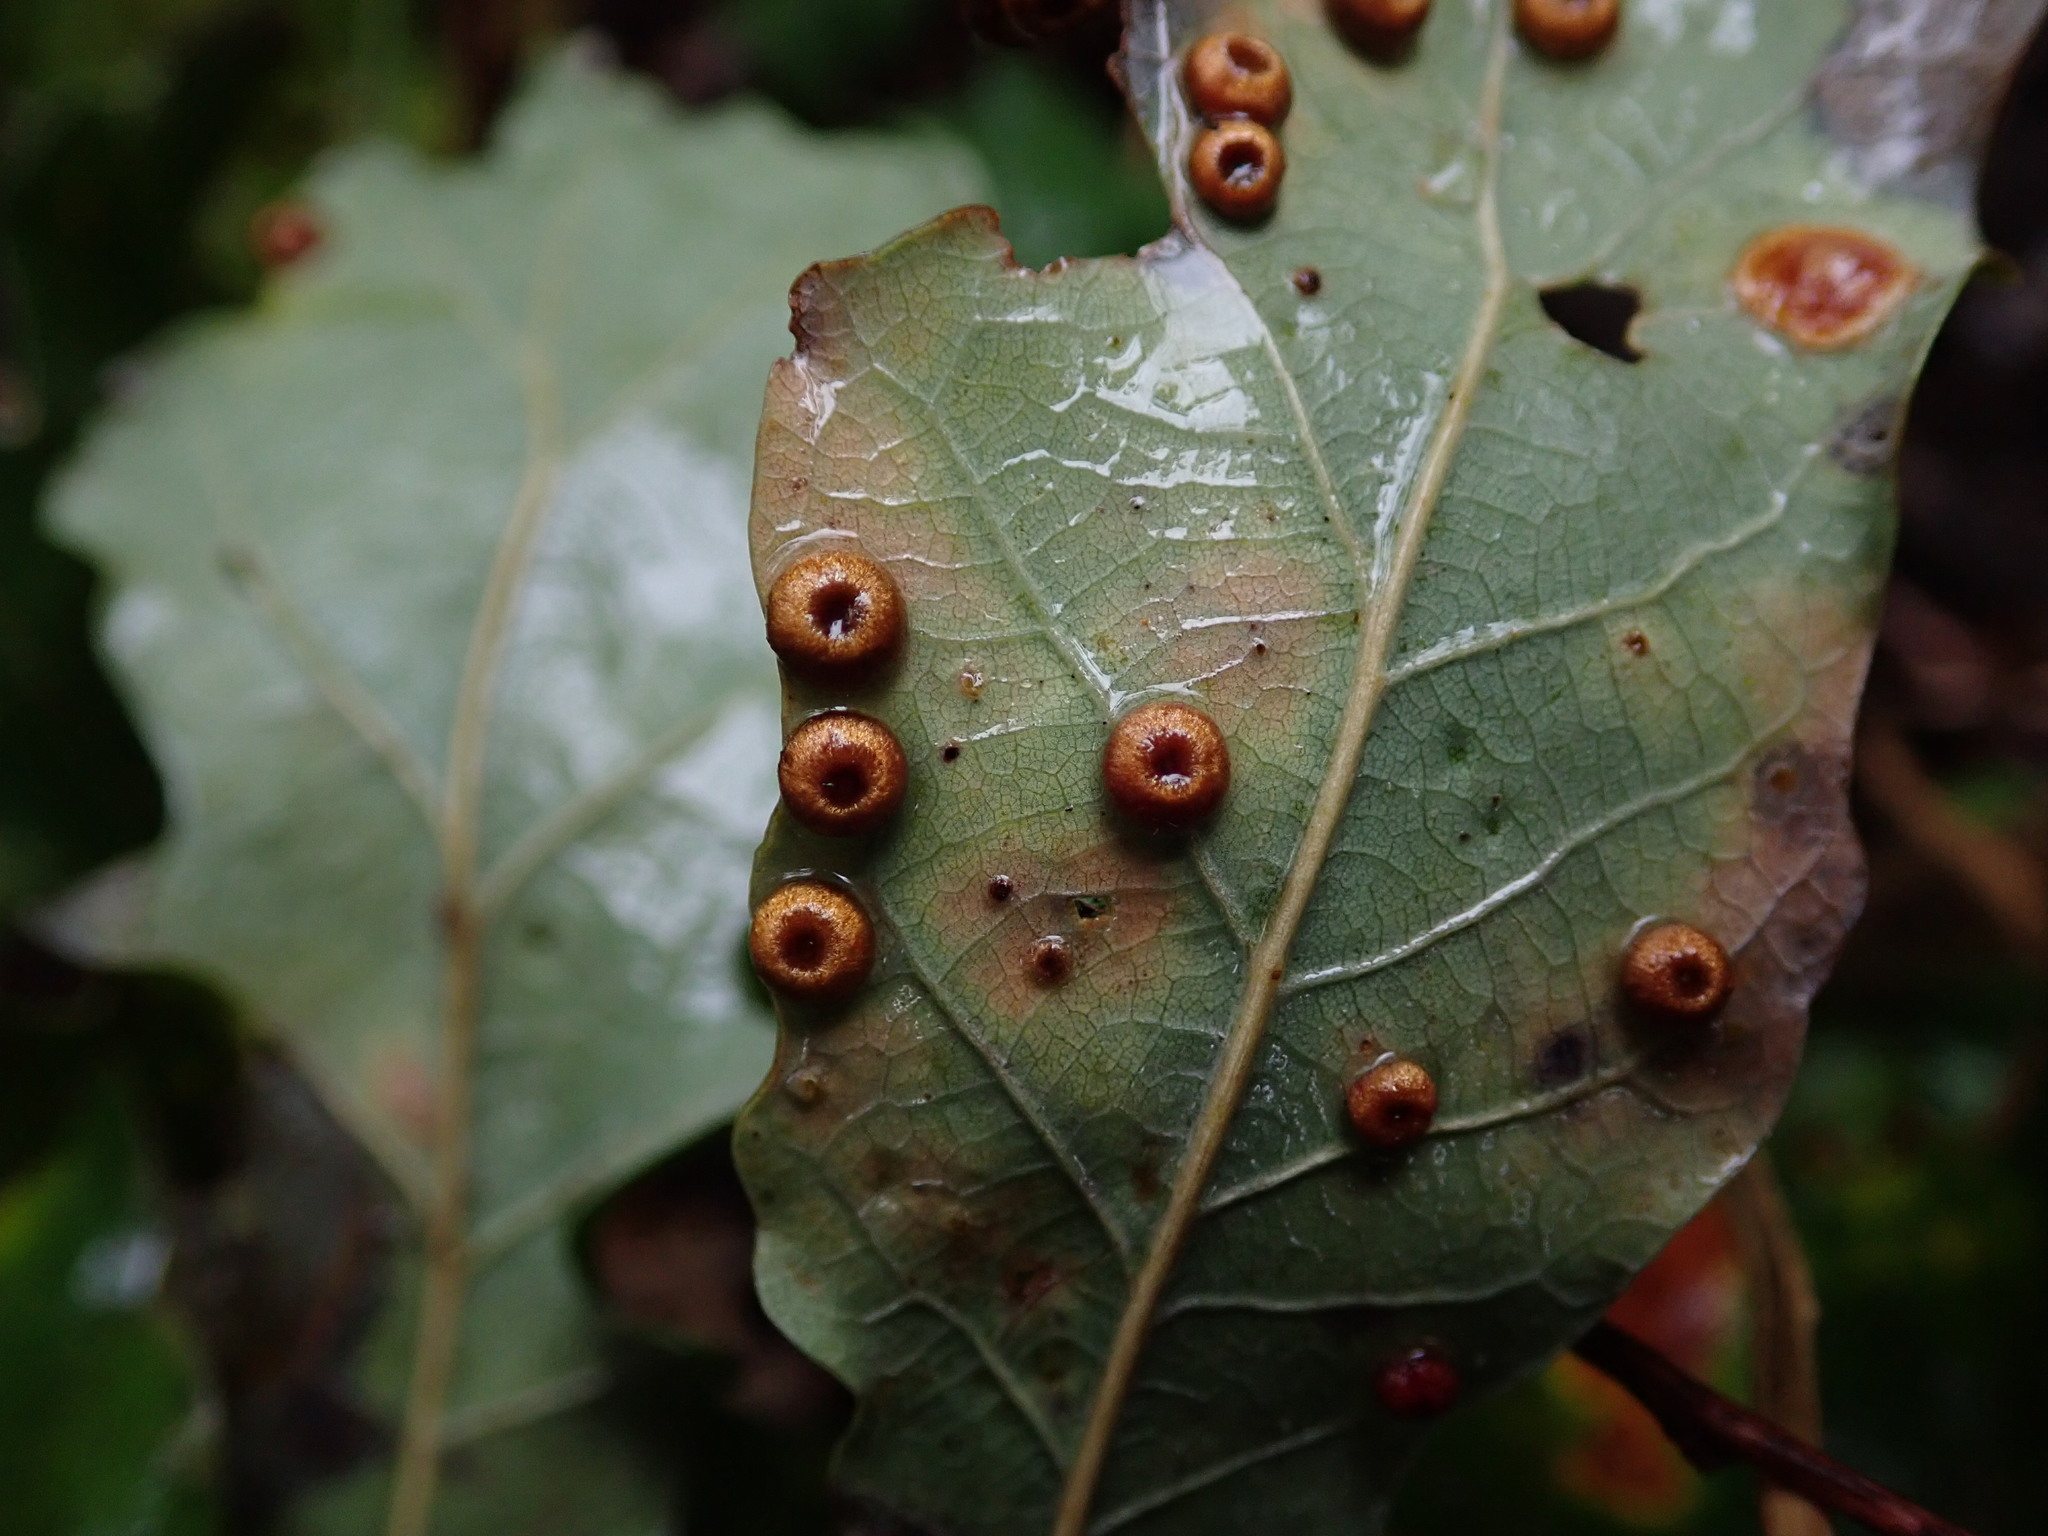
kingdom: Animalia
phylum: Arthropoda
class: Insecta
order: Hymenoptera
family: Cynipidae
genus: Neuroterus
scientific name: Neuroterus numismalis
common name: Silk-button spangle gall
